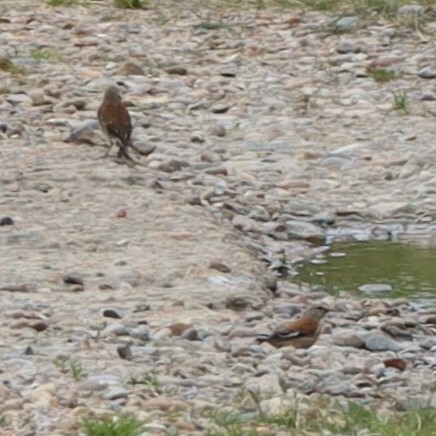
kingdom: Animalia
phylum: Chordata
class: Aves
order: Passeriformes
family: Fringillidae
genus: Linaria
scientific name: Linaria cannabina
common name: Common linnet
